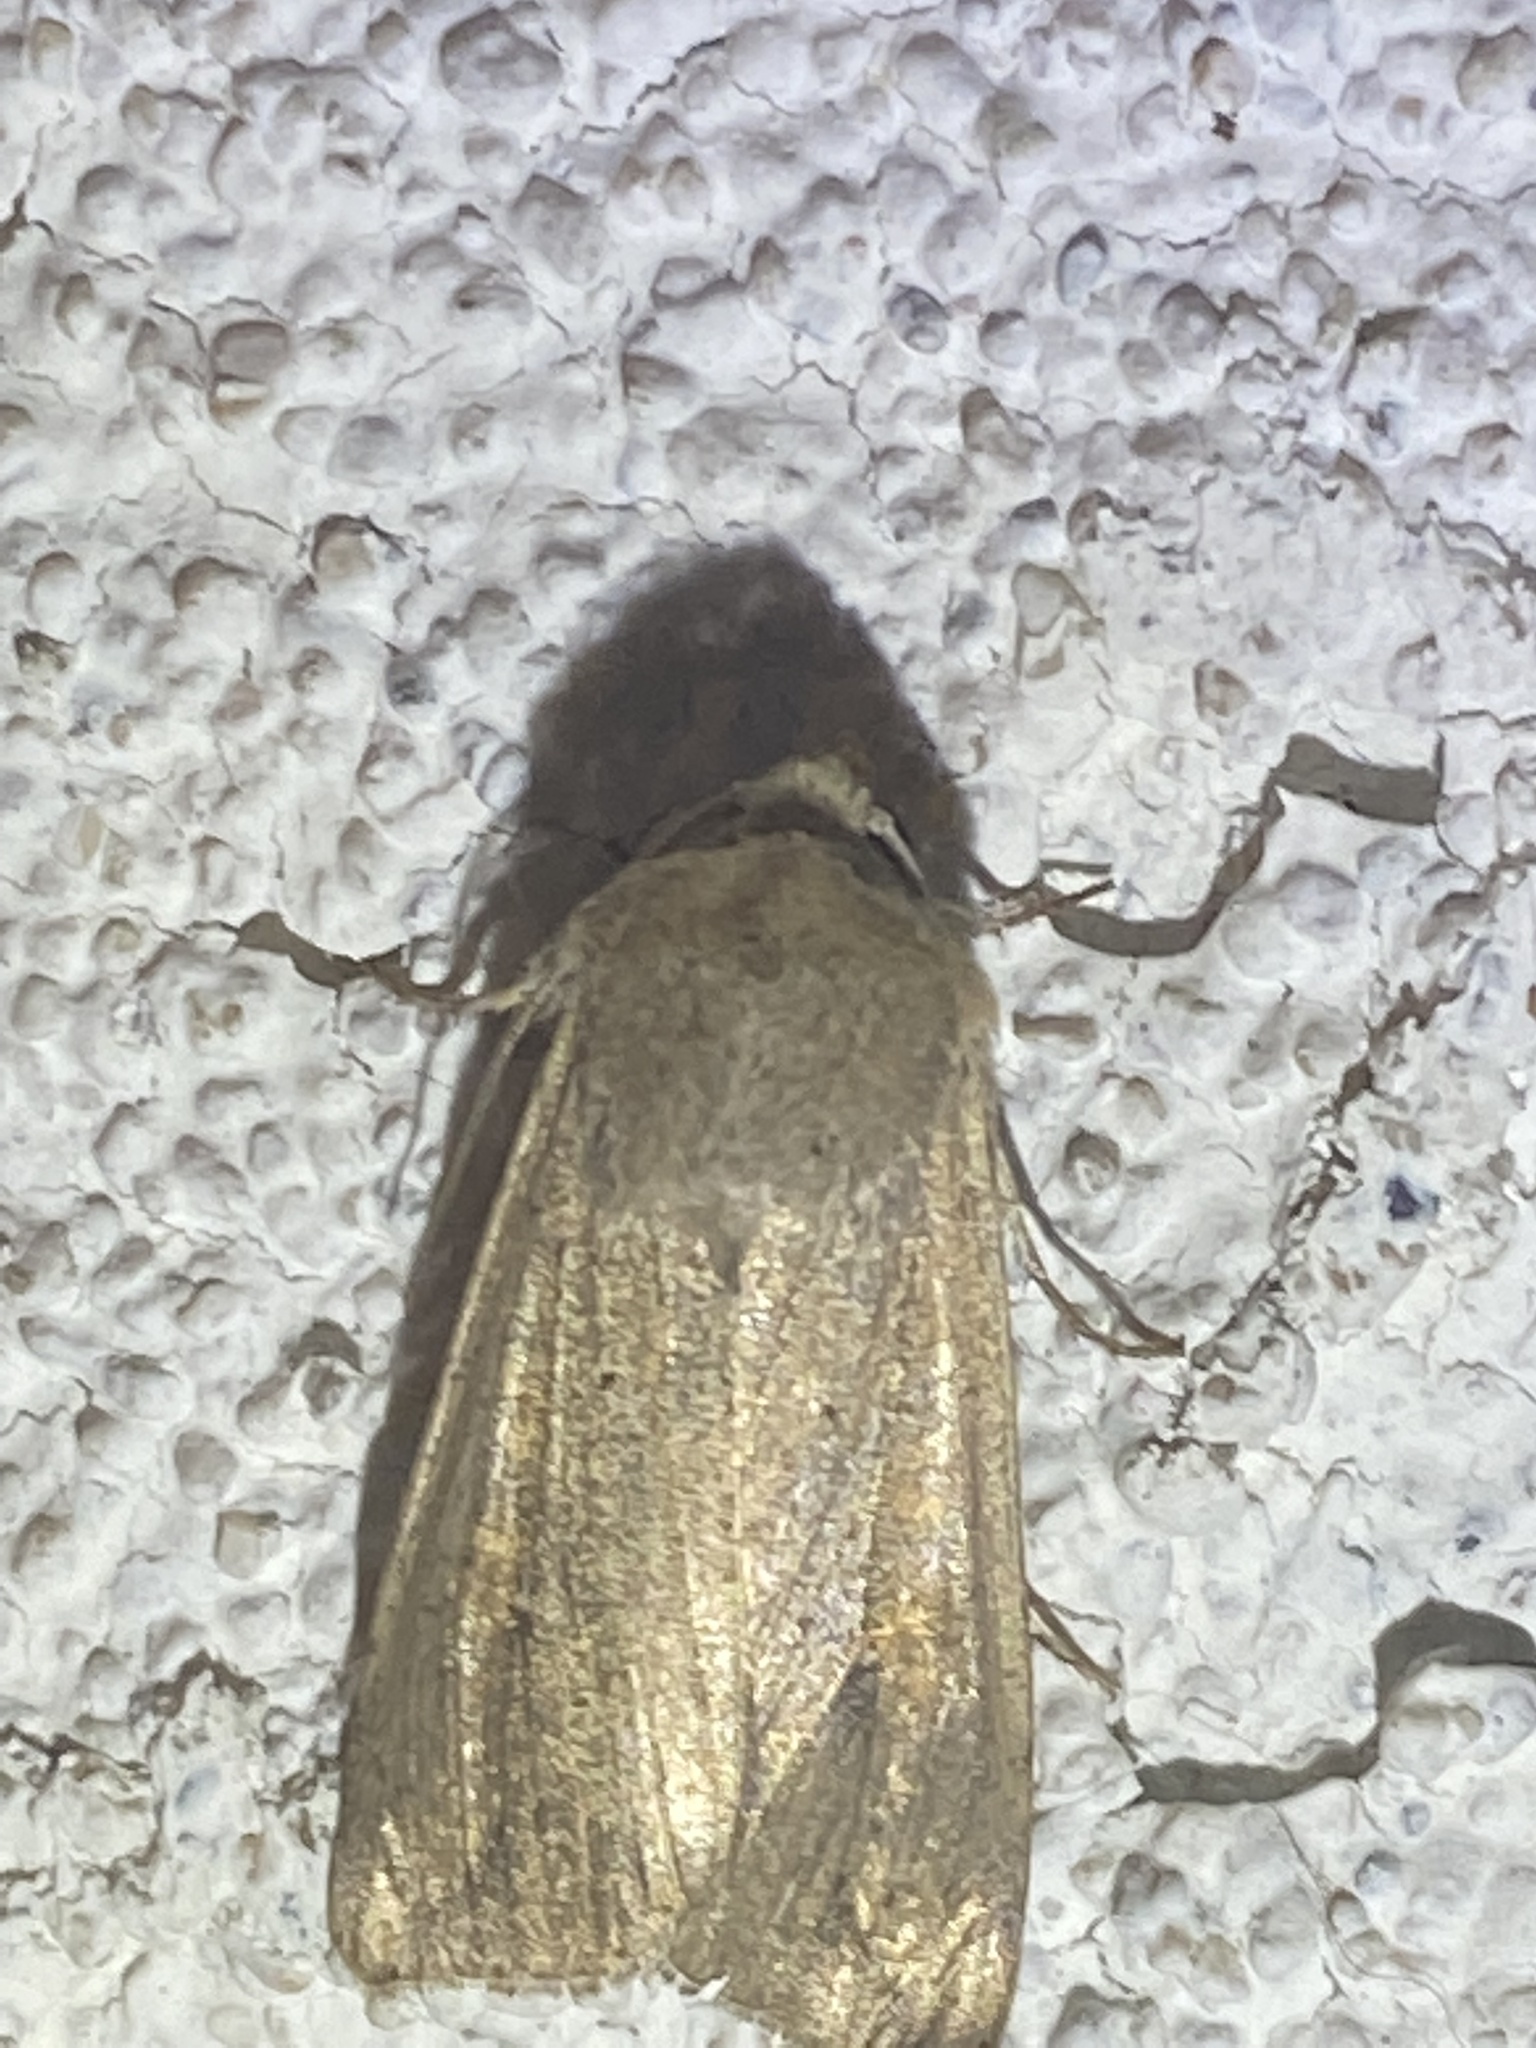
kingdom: Animalia
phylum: Arthropoda
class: Insecta
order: Lepidoptera
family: Noctuidae
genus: Mythimna
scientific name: Mythimna unipuncta
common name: White-speck
